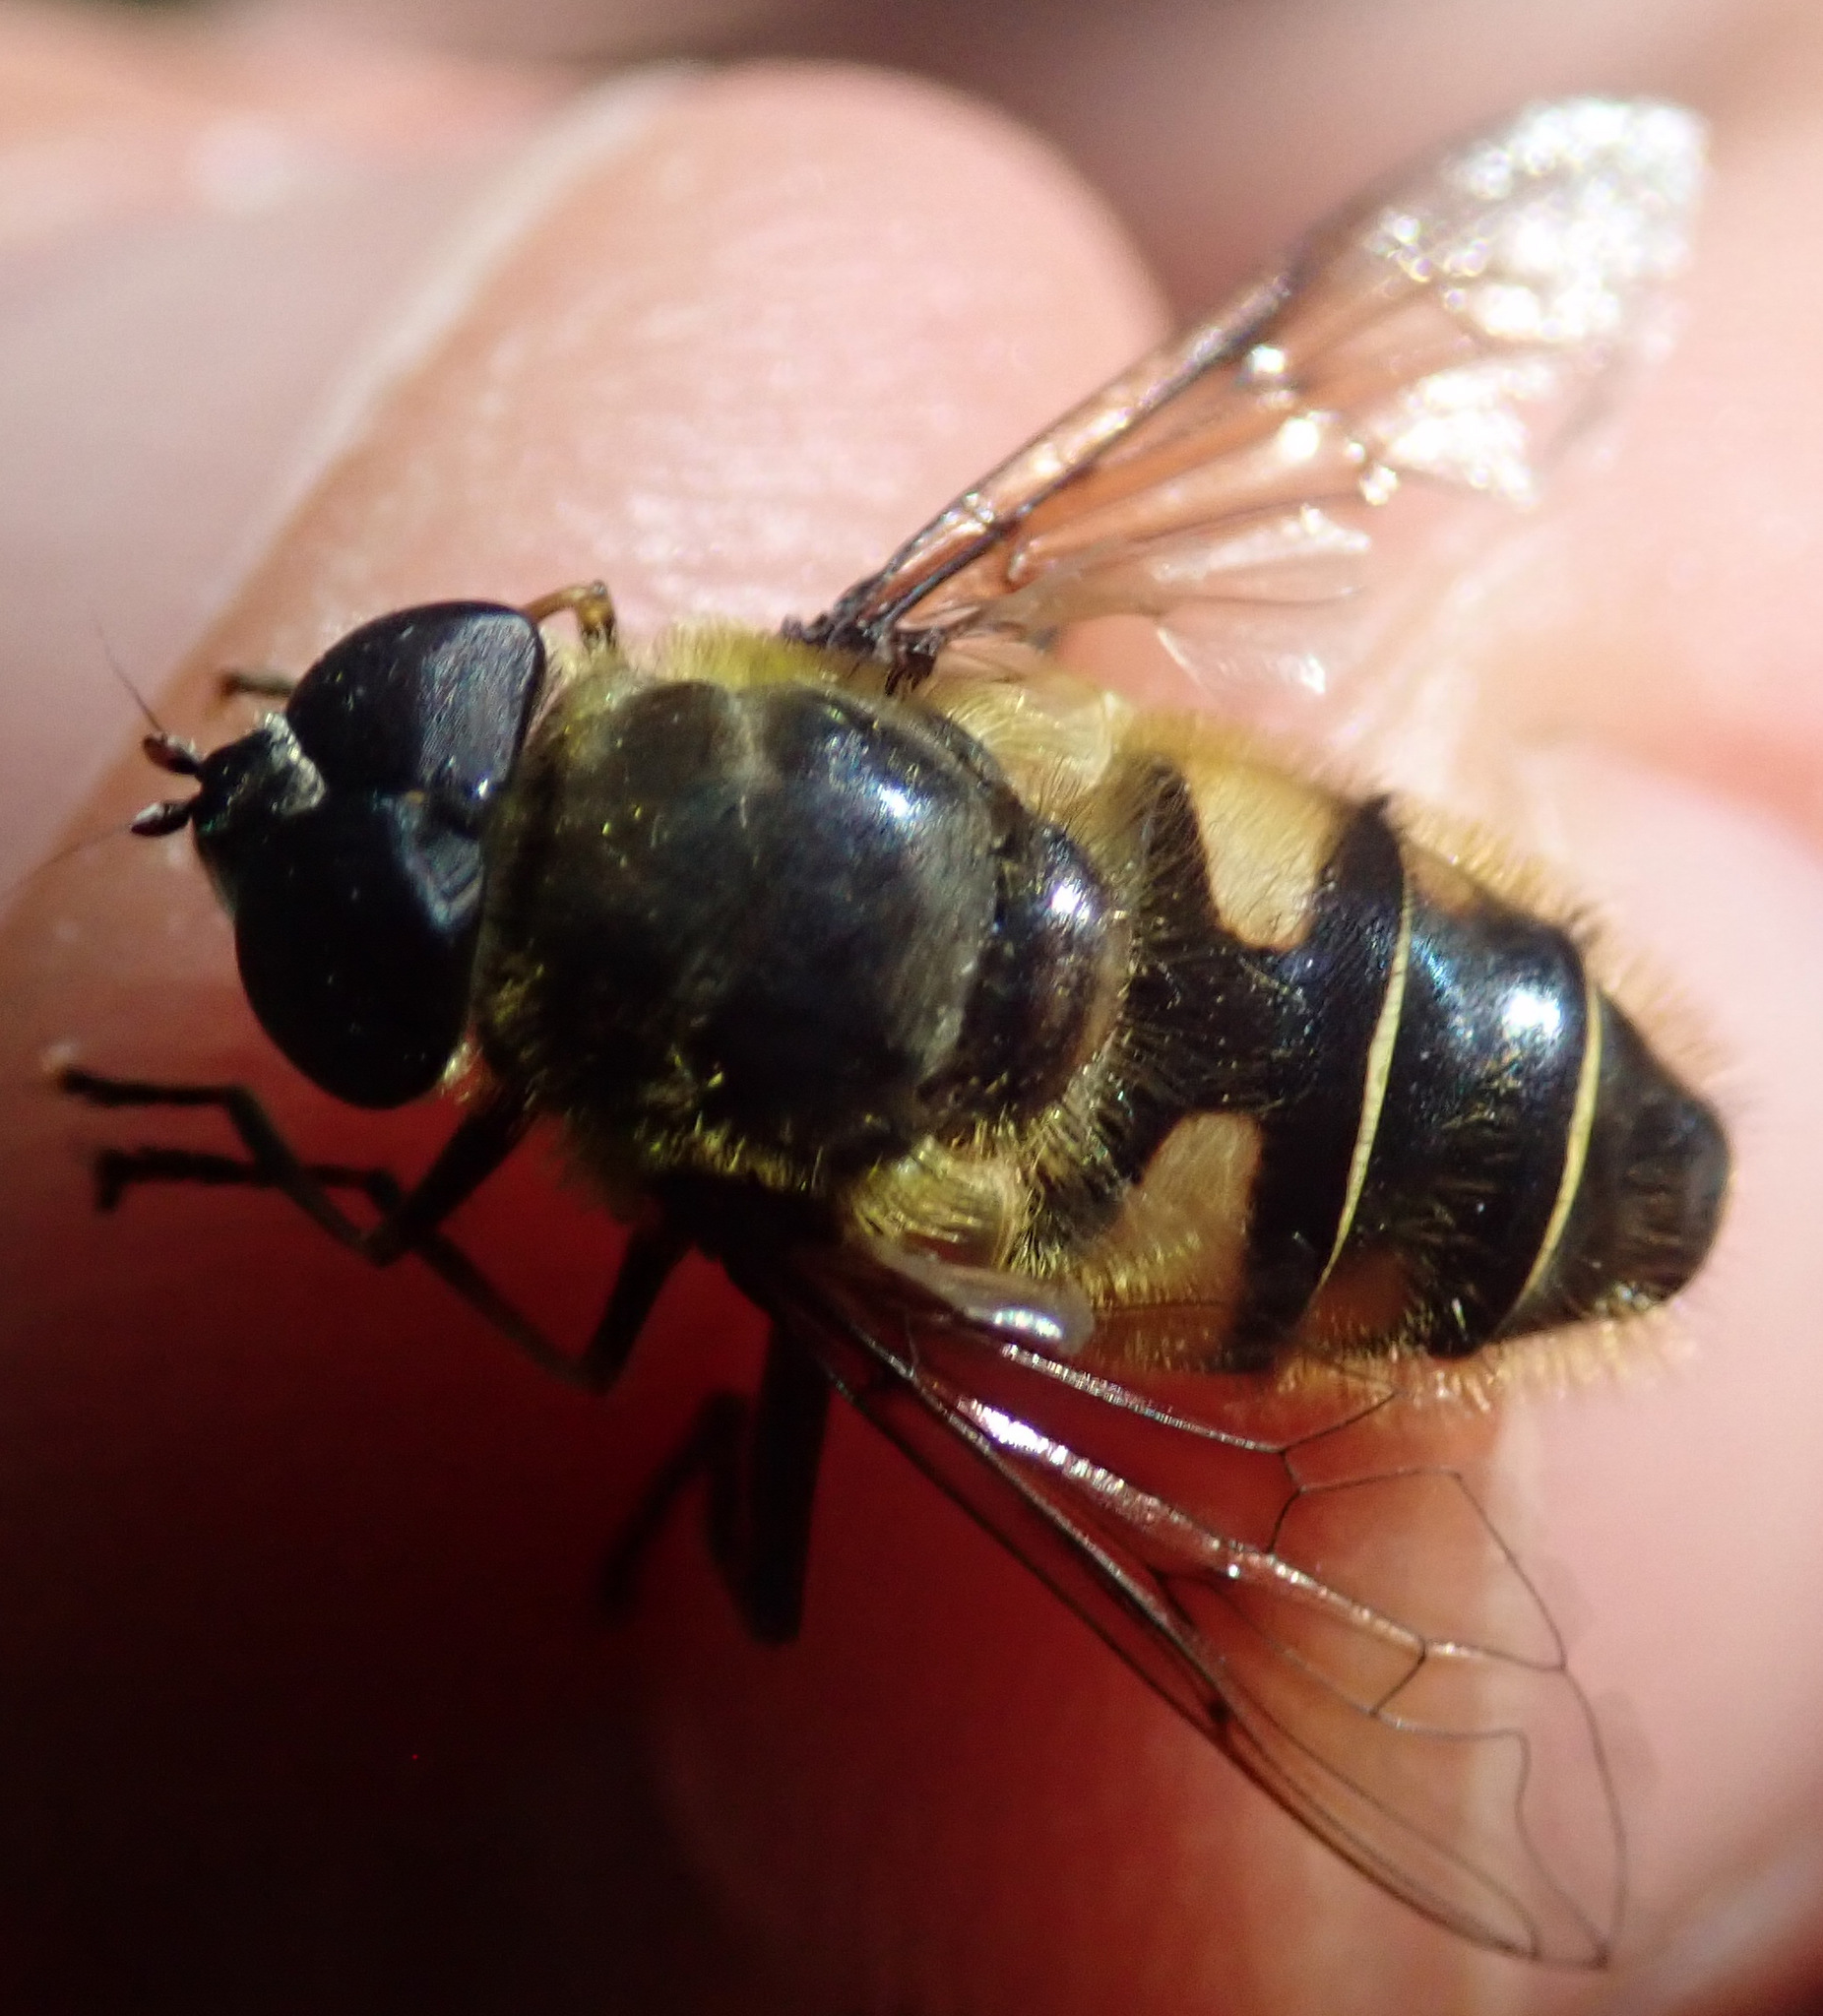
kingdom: Animalia
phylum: Arthropoda
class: Insecta
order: Diptera
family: Syrphidae
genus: Myathropa
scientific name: Myathropa florea
